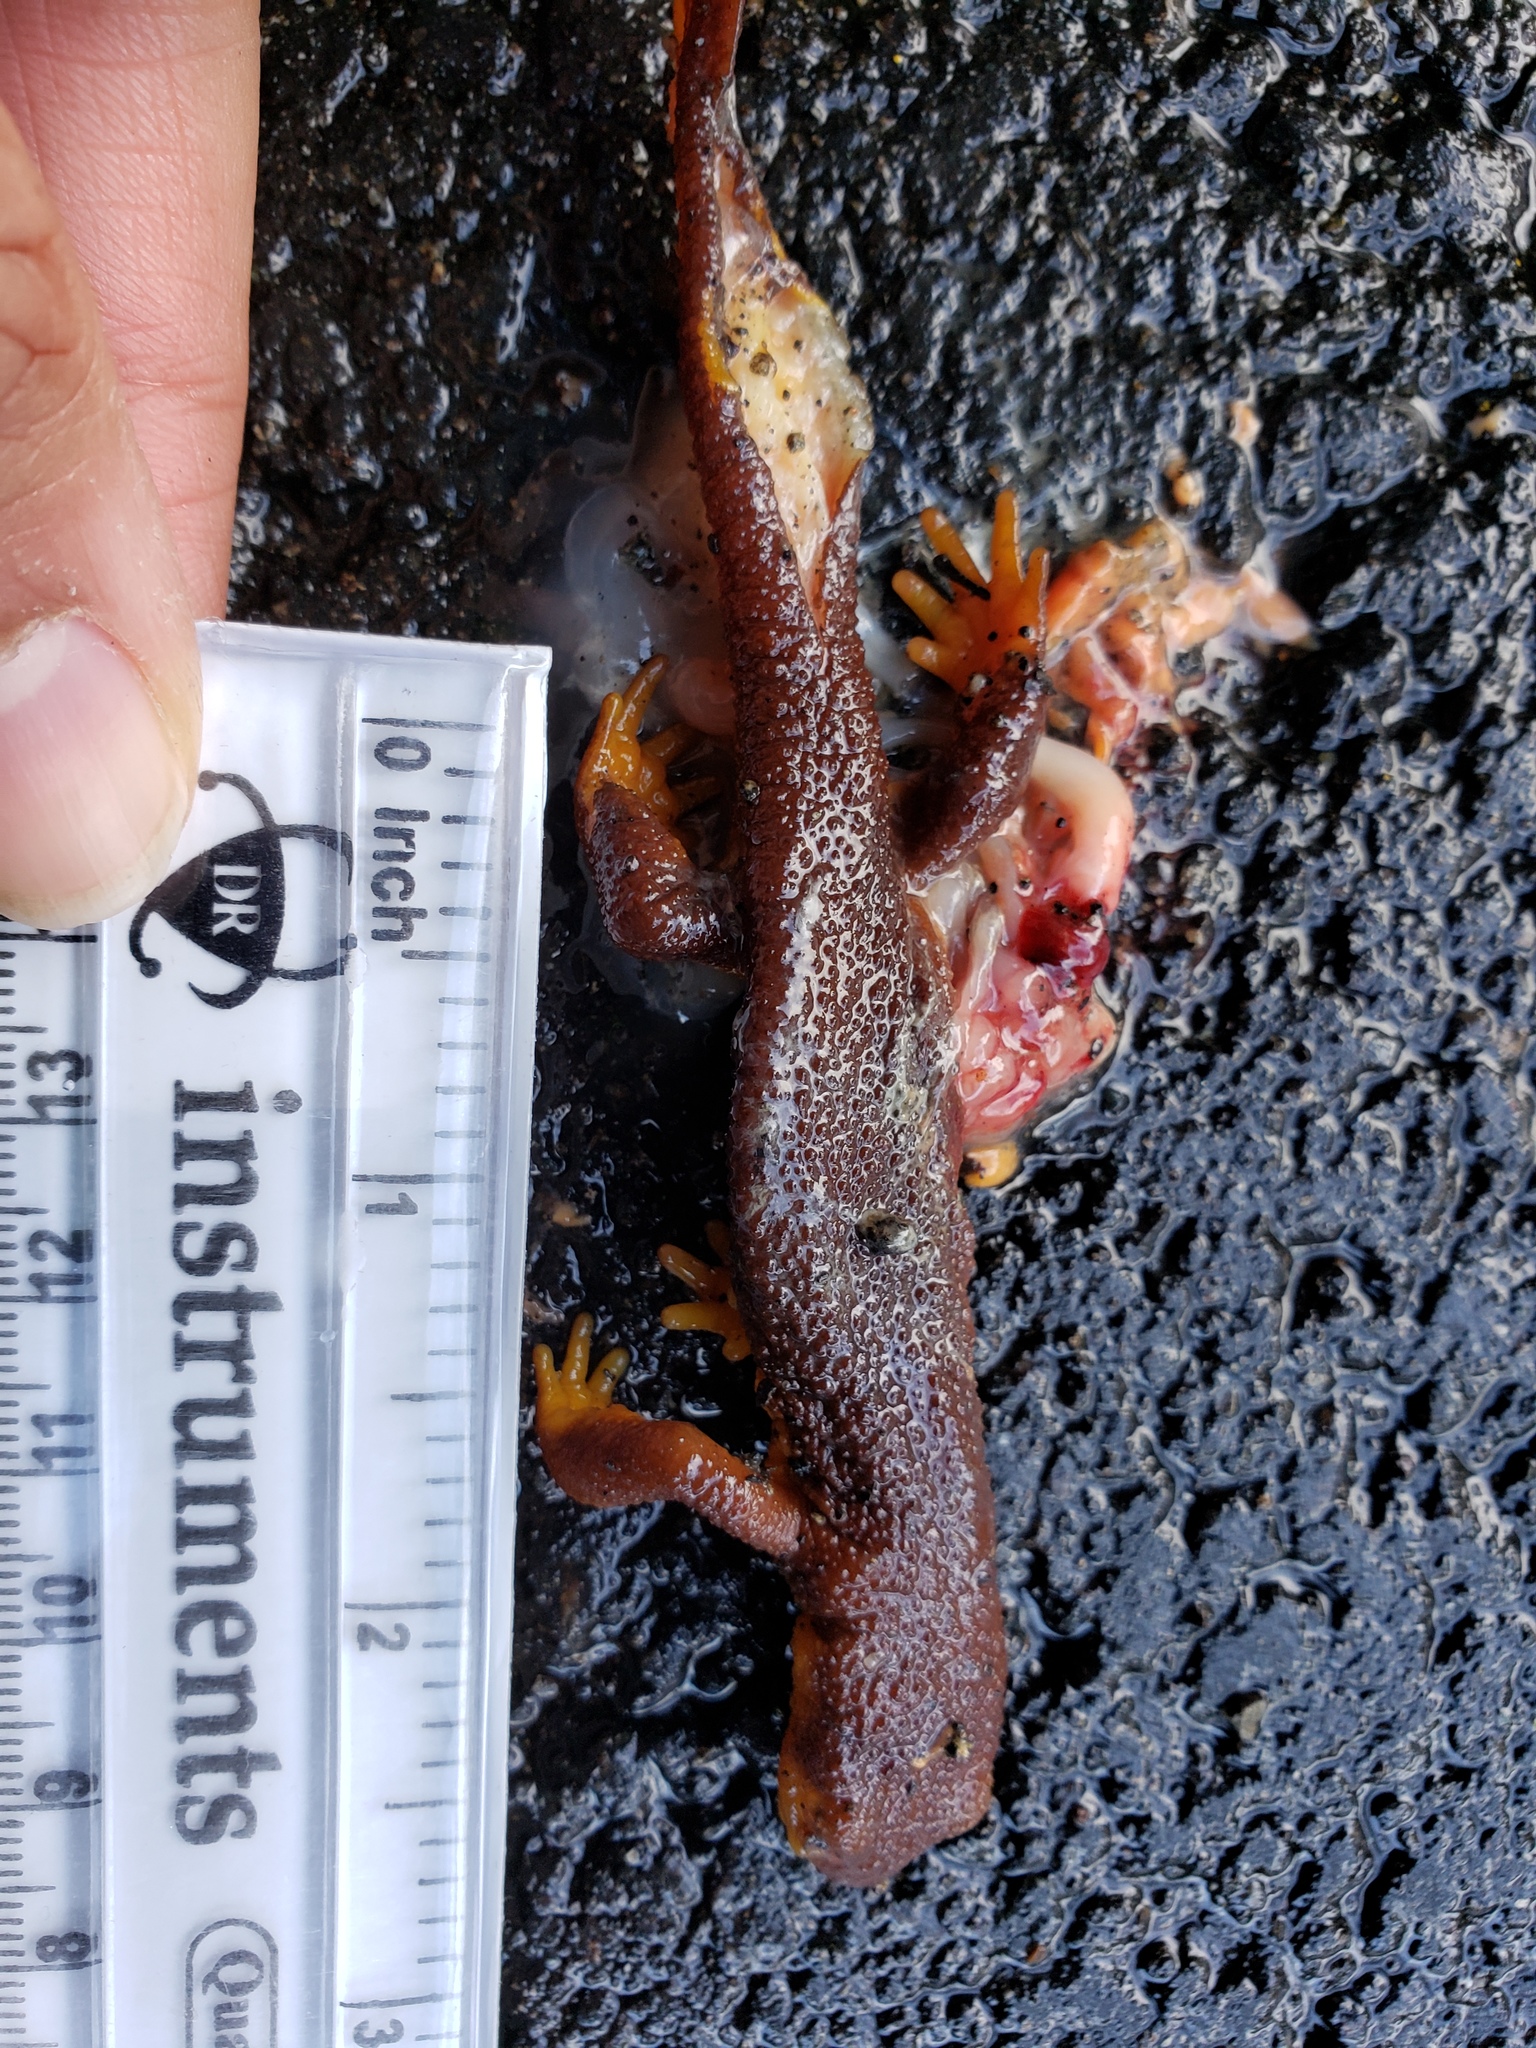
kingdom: Animalia
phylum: Chordata
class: Amphibia
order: Caudata
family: Salamandridae
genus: Taricha
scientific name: Taricha
